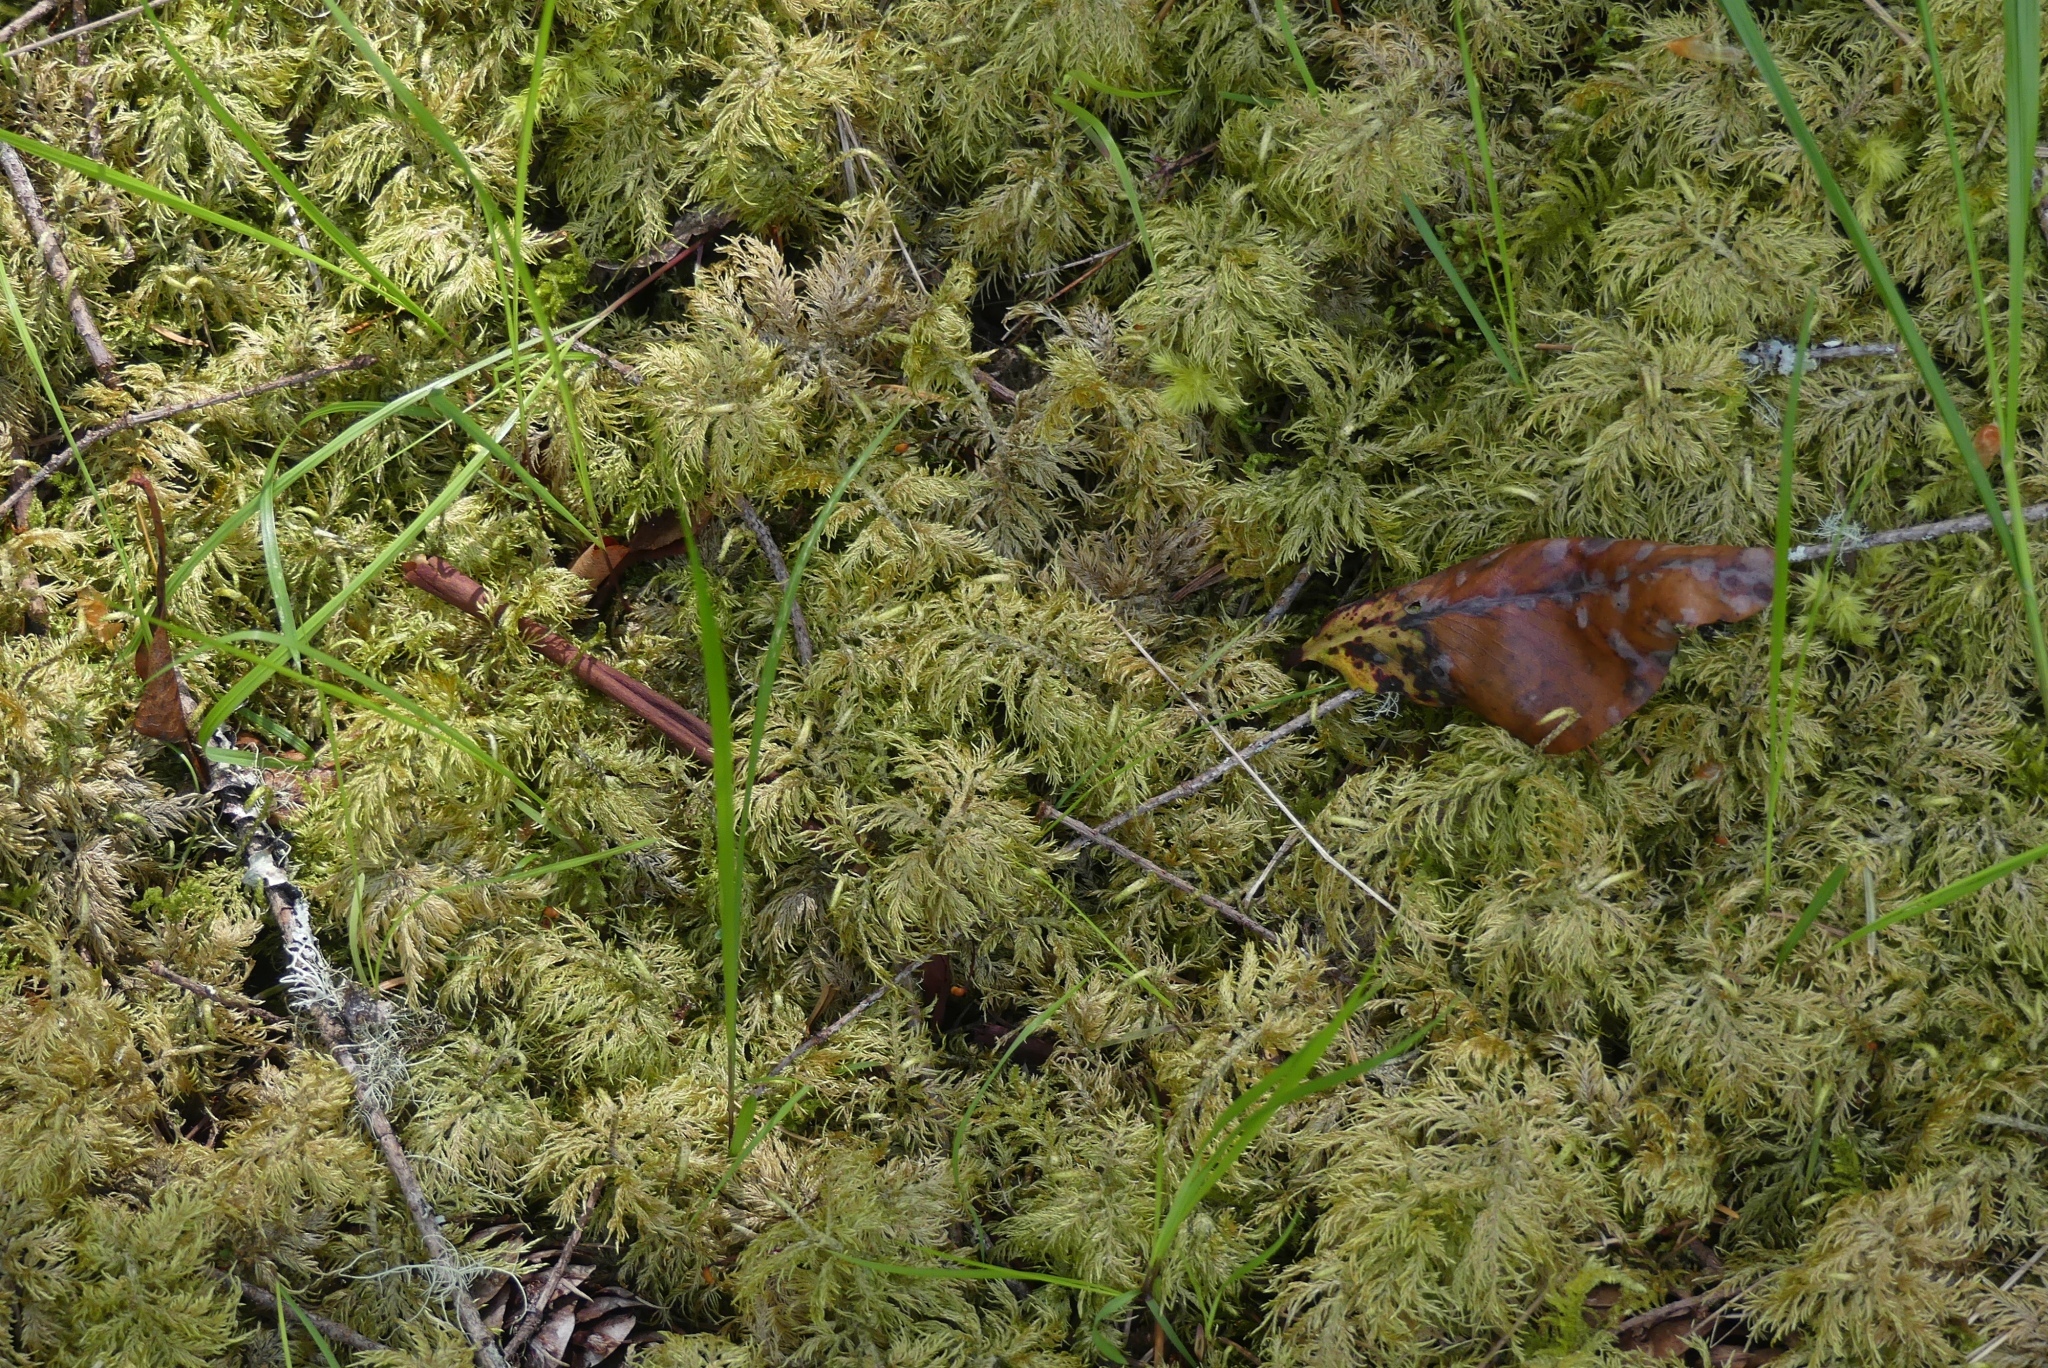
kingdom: Plantae
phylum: Bryophyta
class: Bryopsida
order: Hypnales
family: Hylocomiaceae
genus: Hylocomium
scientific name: Hylocomium splendens
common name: Stairstep moss
